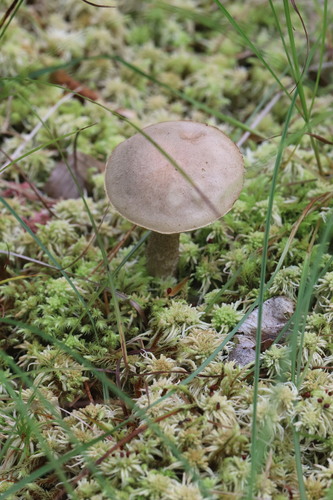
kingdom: Fungi
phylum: Basidiomycota
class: Agaricomycetes
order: Boletales
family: Boletaceae
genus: Leccinum
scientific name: Leccinum holopus
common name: Ghost bolete
